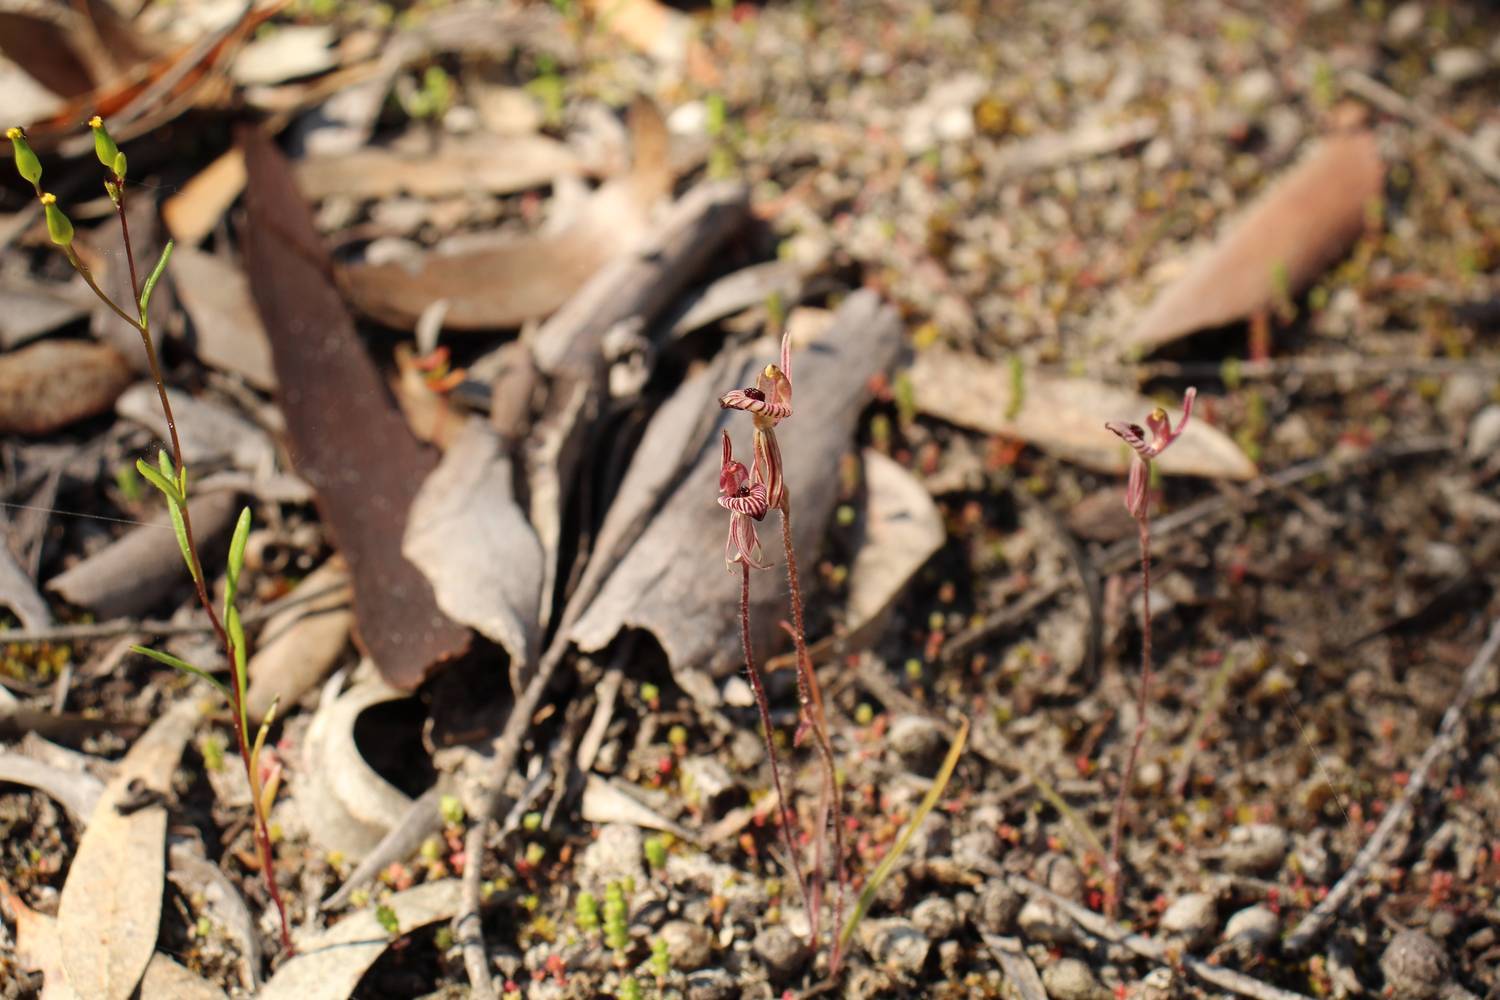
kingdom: Plantae
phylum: Tracheophyta
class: Liliopsida
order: Asparagales
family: Orchidaceae
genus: Caladenia
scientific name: Caladenia cairnsiana
